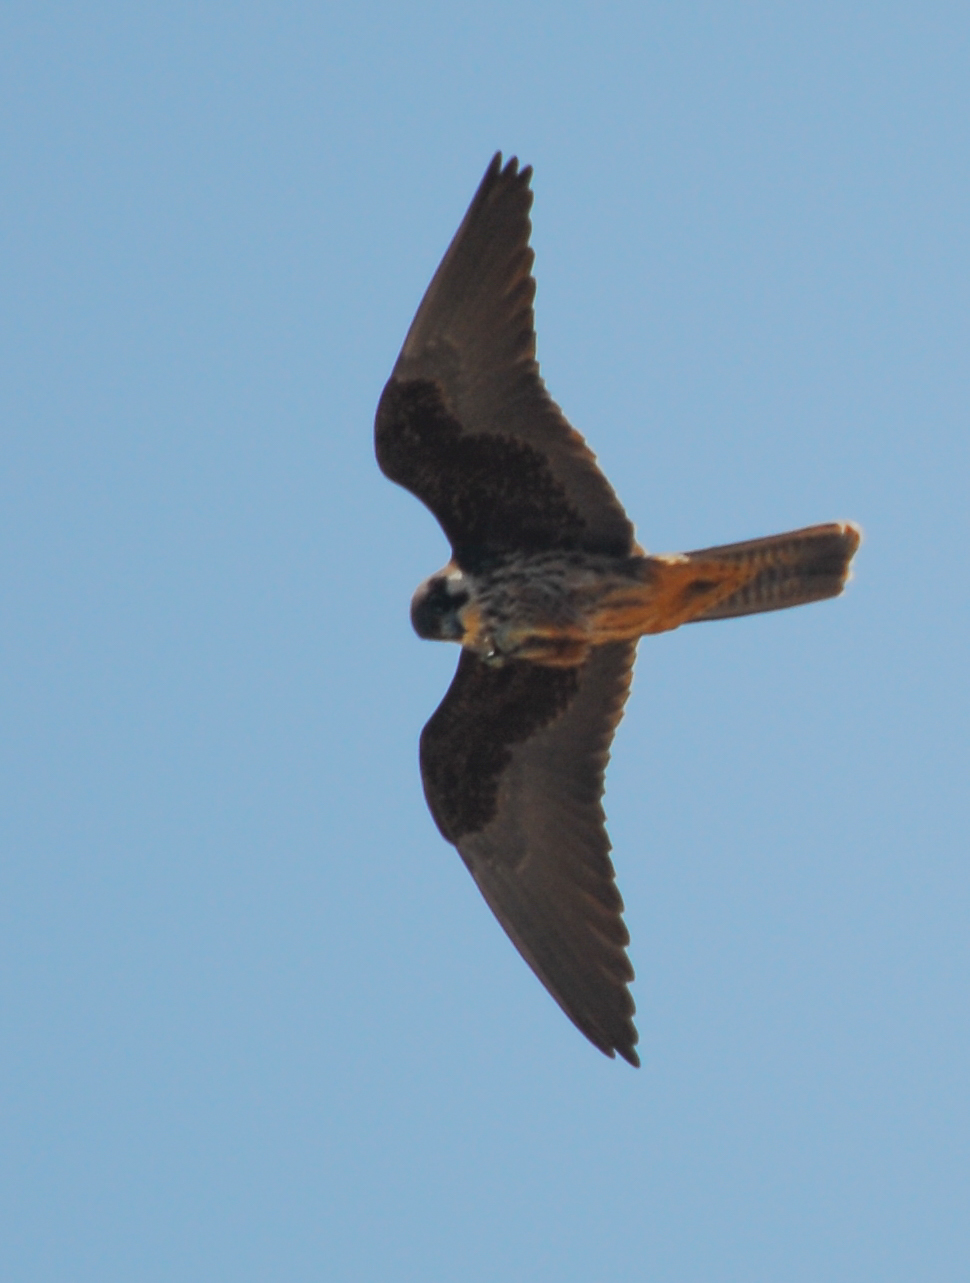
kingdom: Animalia
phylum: Chordata
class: Aves
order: Falconiformes
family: Falconidae
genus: Falco
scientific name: Falco eleonorae
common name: Eleonora's falcon
